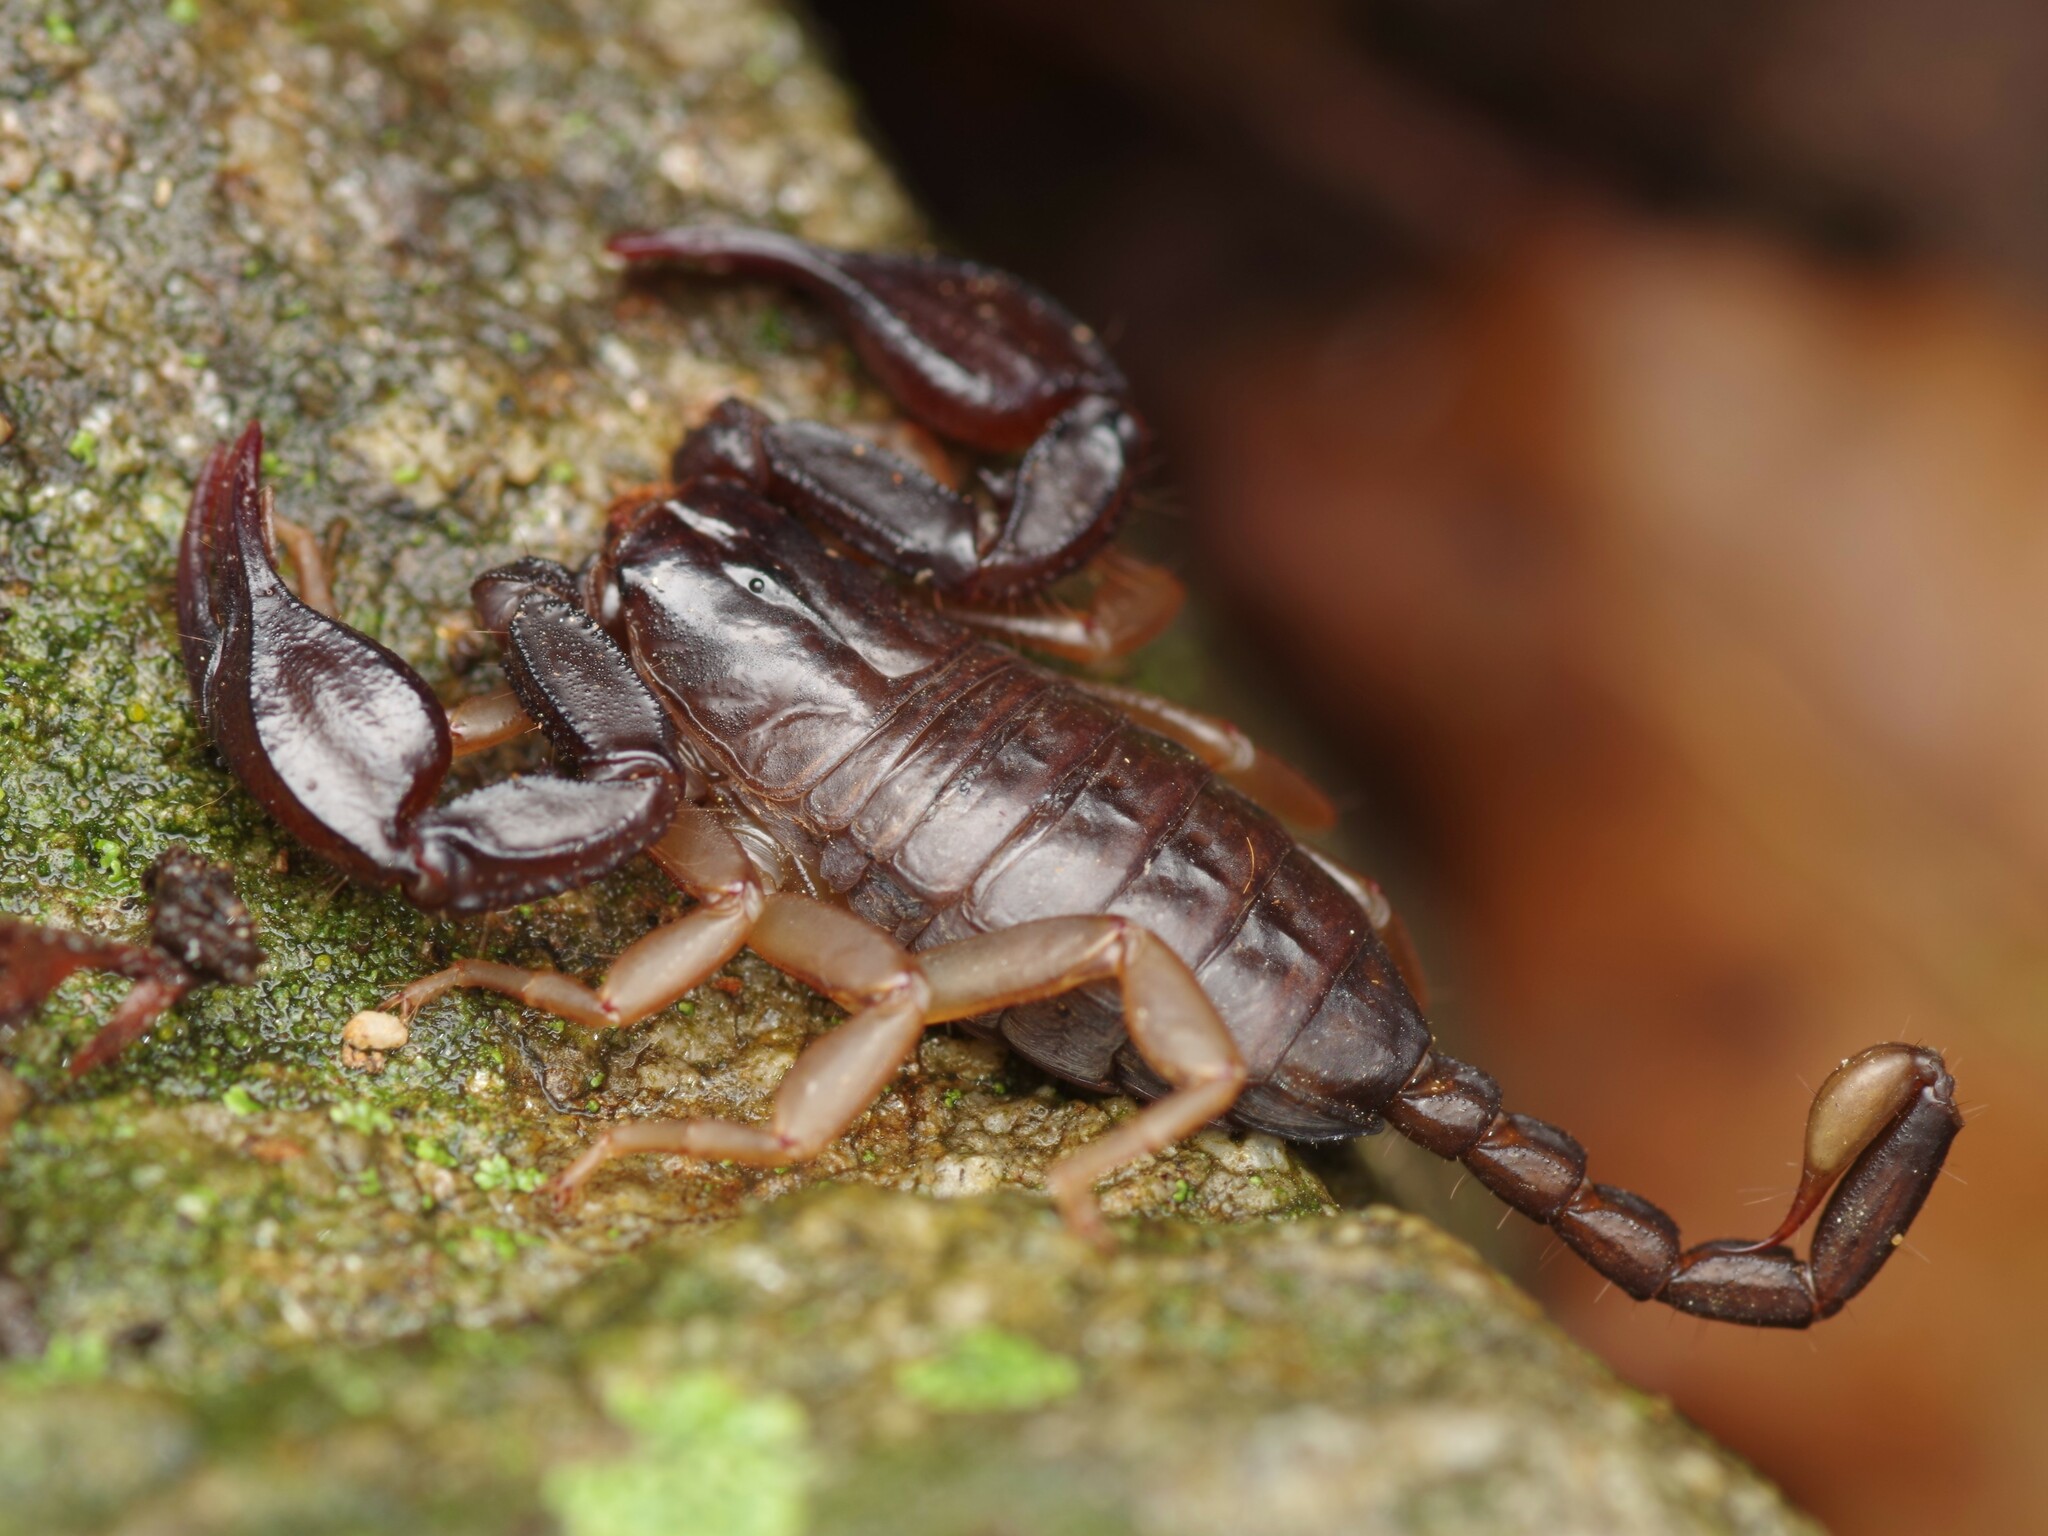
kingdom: Animalia
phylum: Arthropoda
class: Arachnida
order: Scorpiones
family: Euscorpiidae
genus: Euscorpius
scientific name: Euscorpius flavicaudis
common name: European yellow-tailed scorpion
